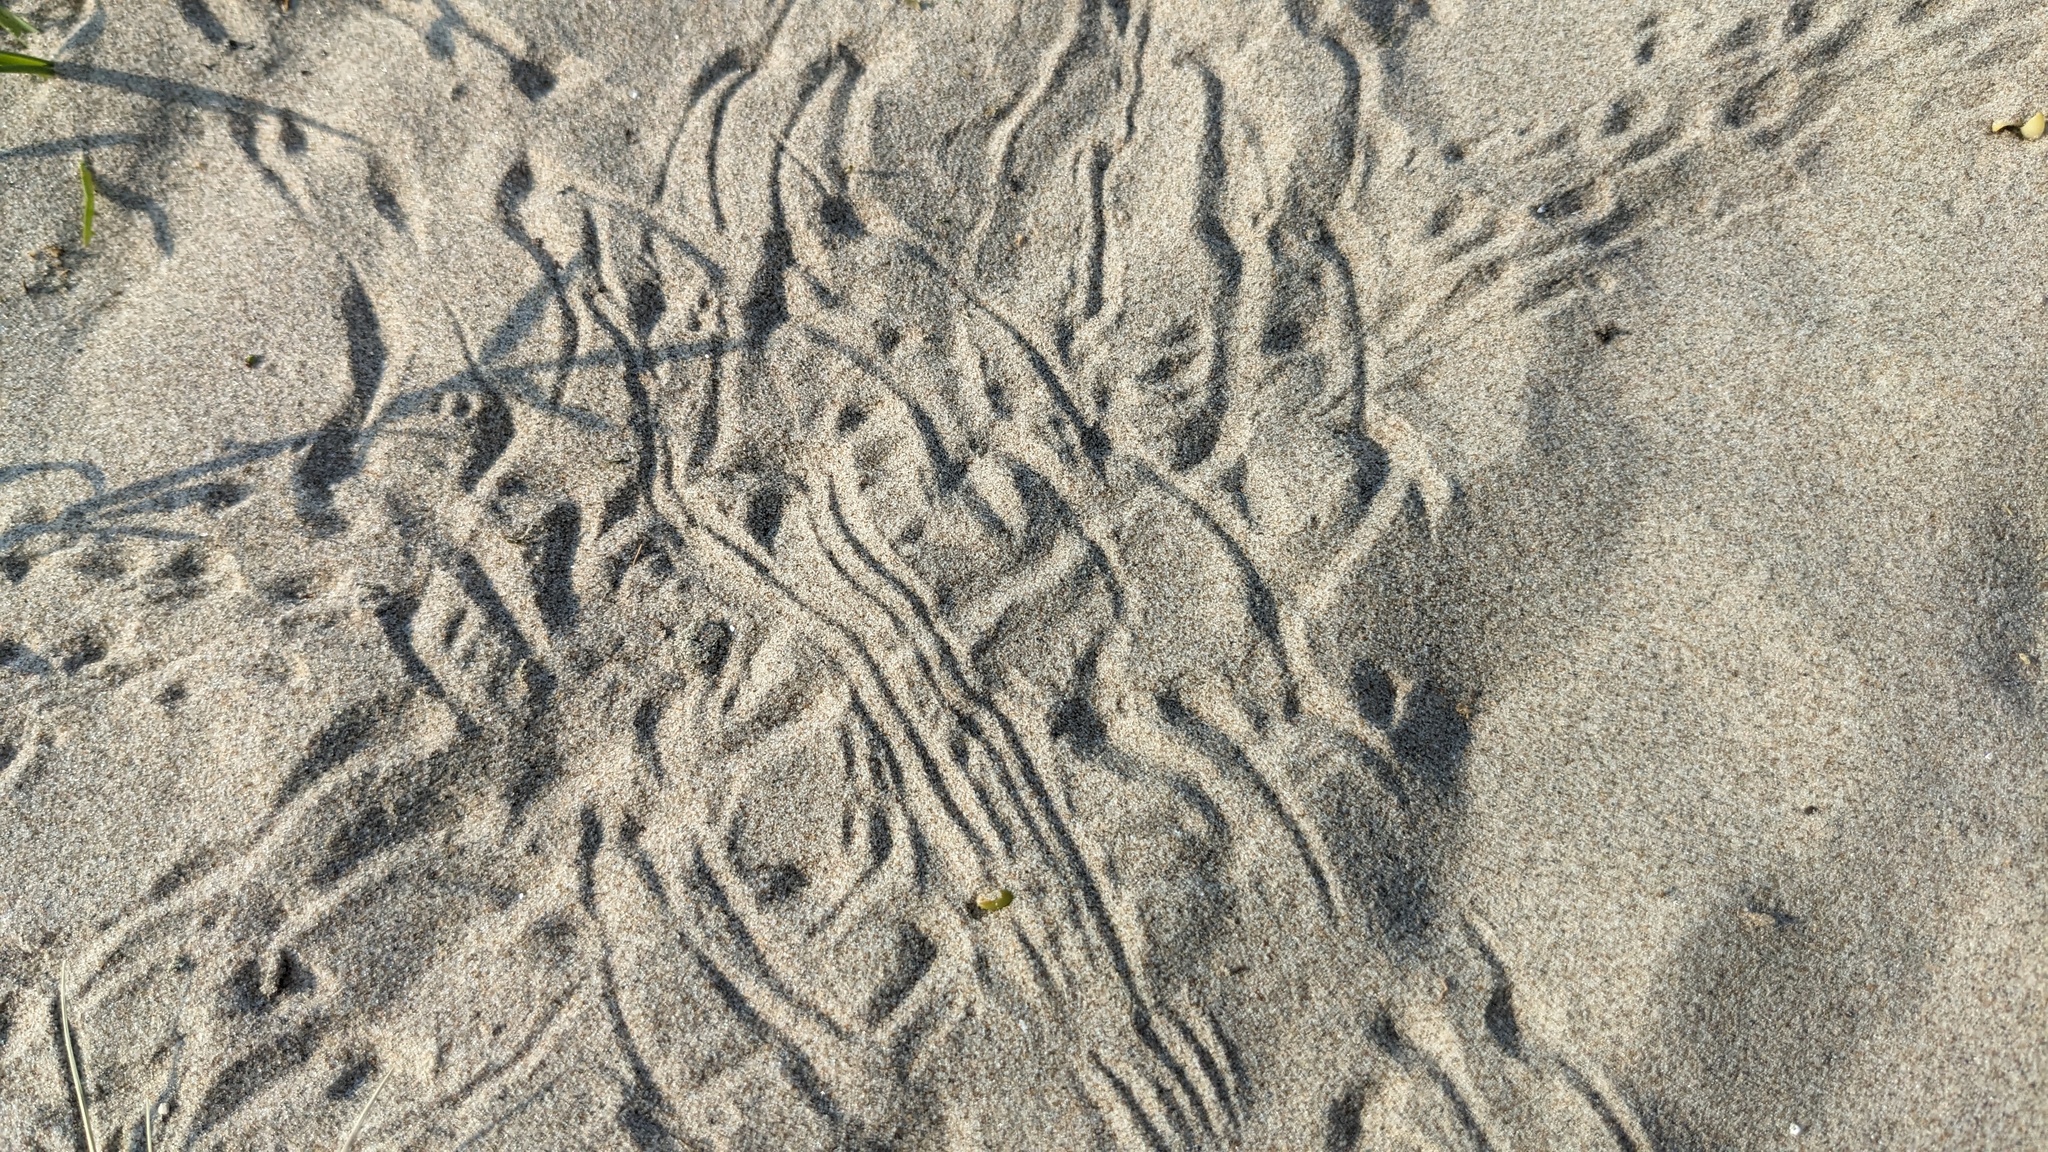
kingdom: Animalia
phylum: Arthropoda
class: Malacostraca
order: Decapoda
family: Ocypodidae
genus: Ocypode
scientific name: Ocypode quadrata
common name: Ghost crab
